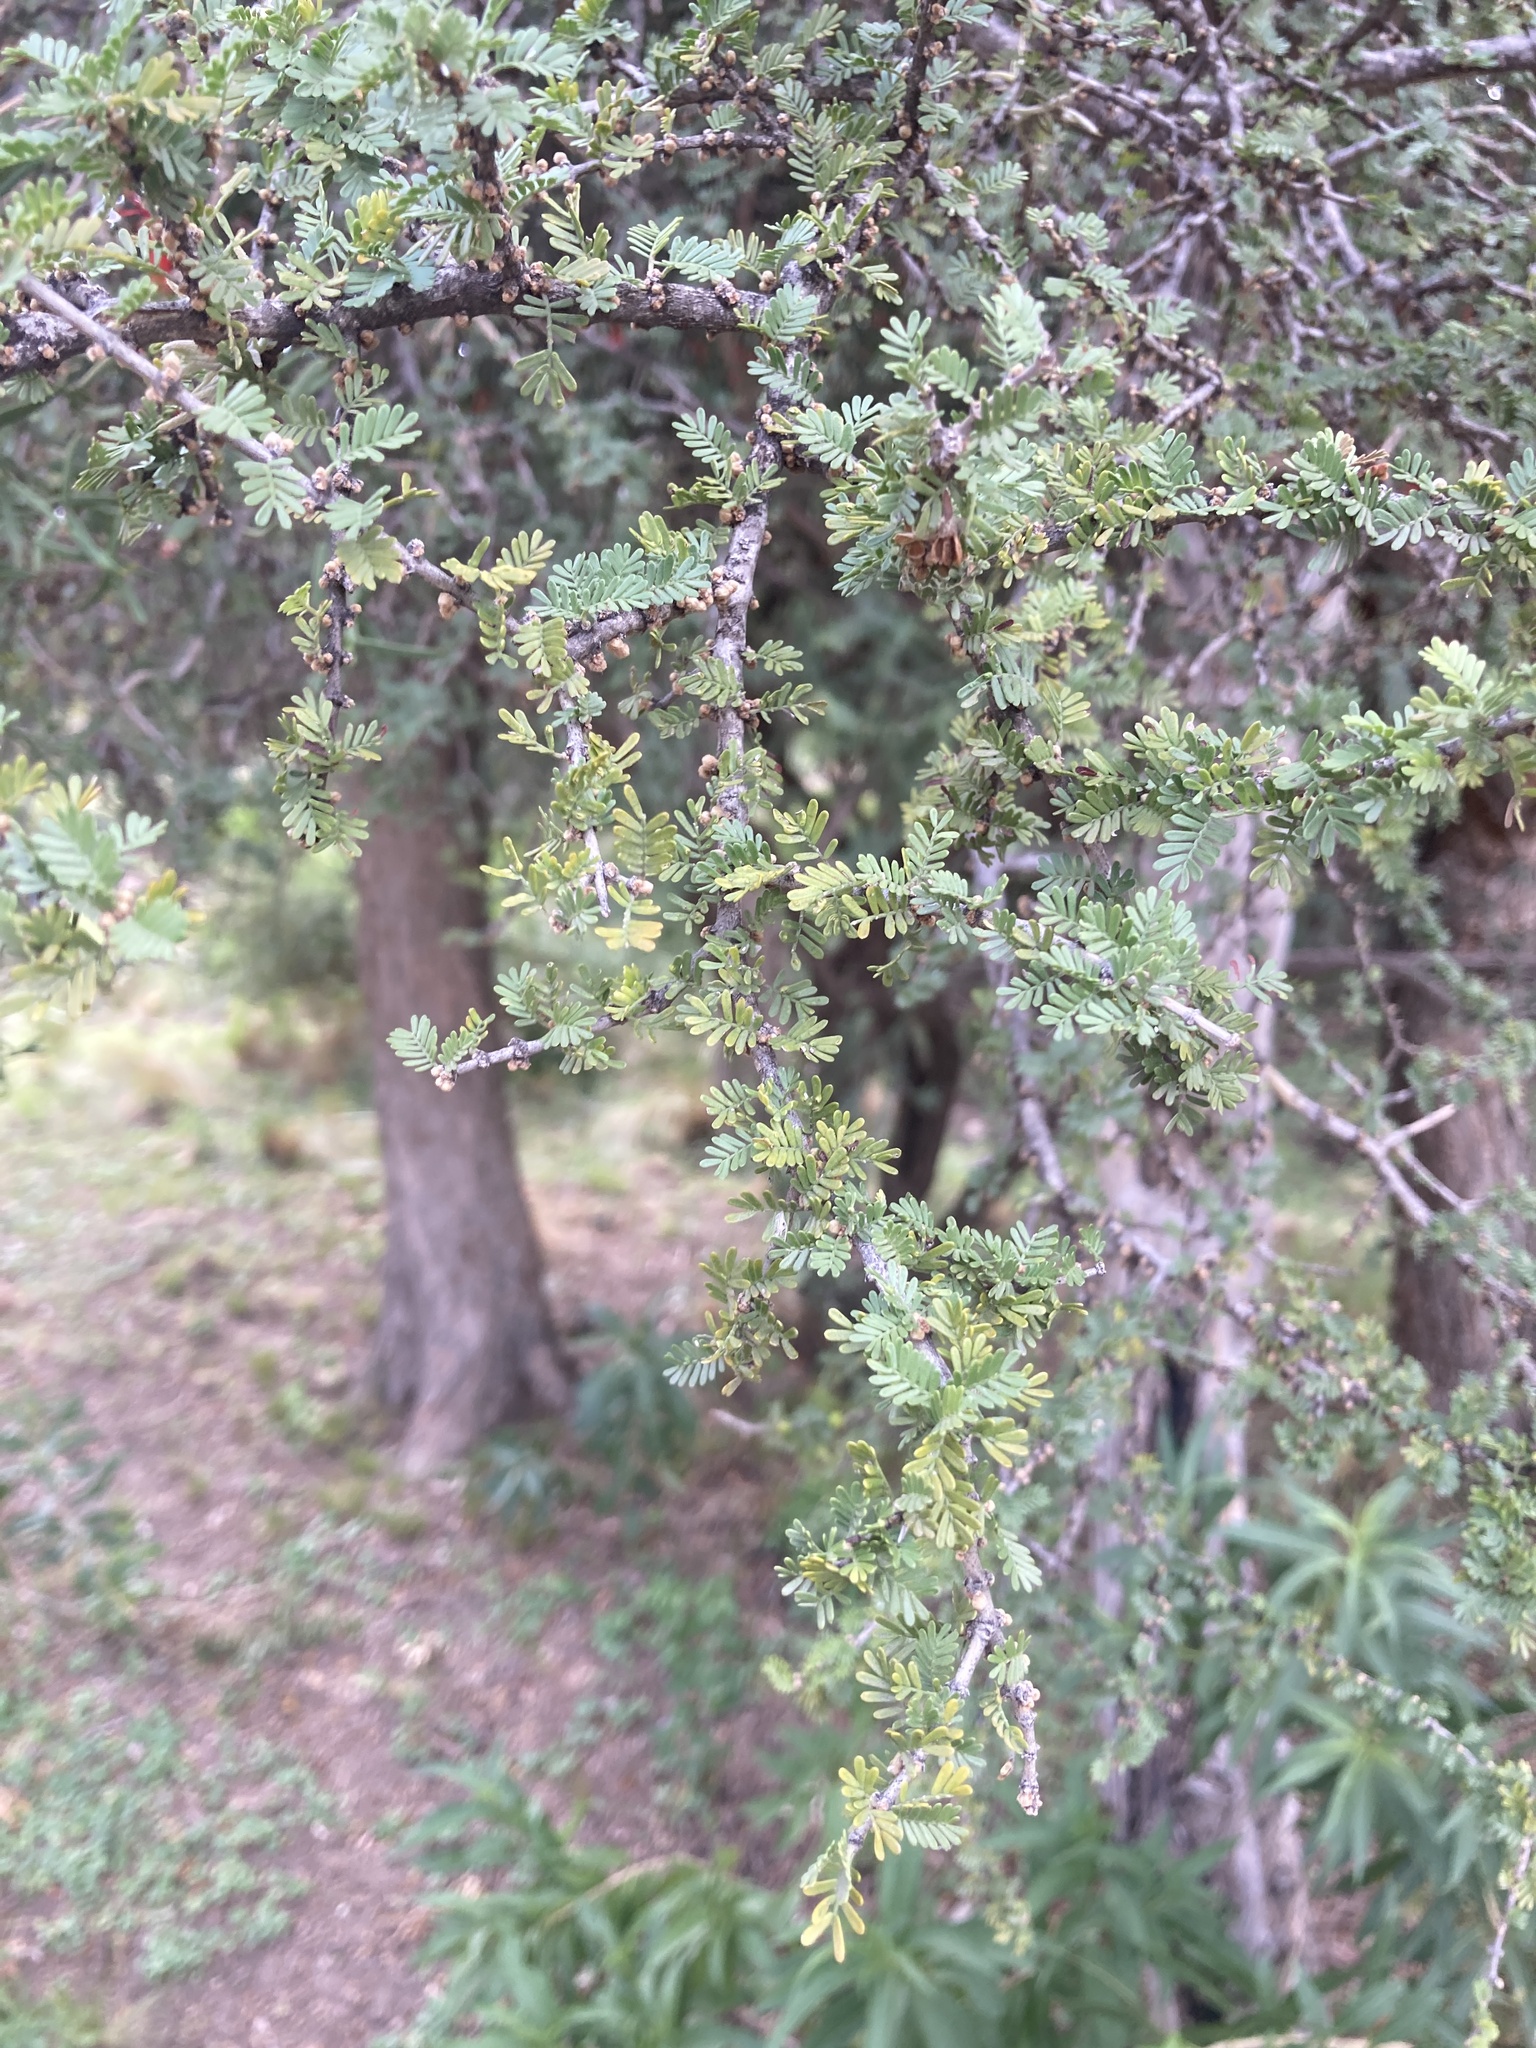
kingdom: Plantae
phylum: Tracheophyta
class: Magnoliopsida
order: Zygophyllales
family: Zygophyllaceae
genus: Porlieria
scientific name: Porlieria microphylla
